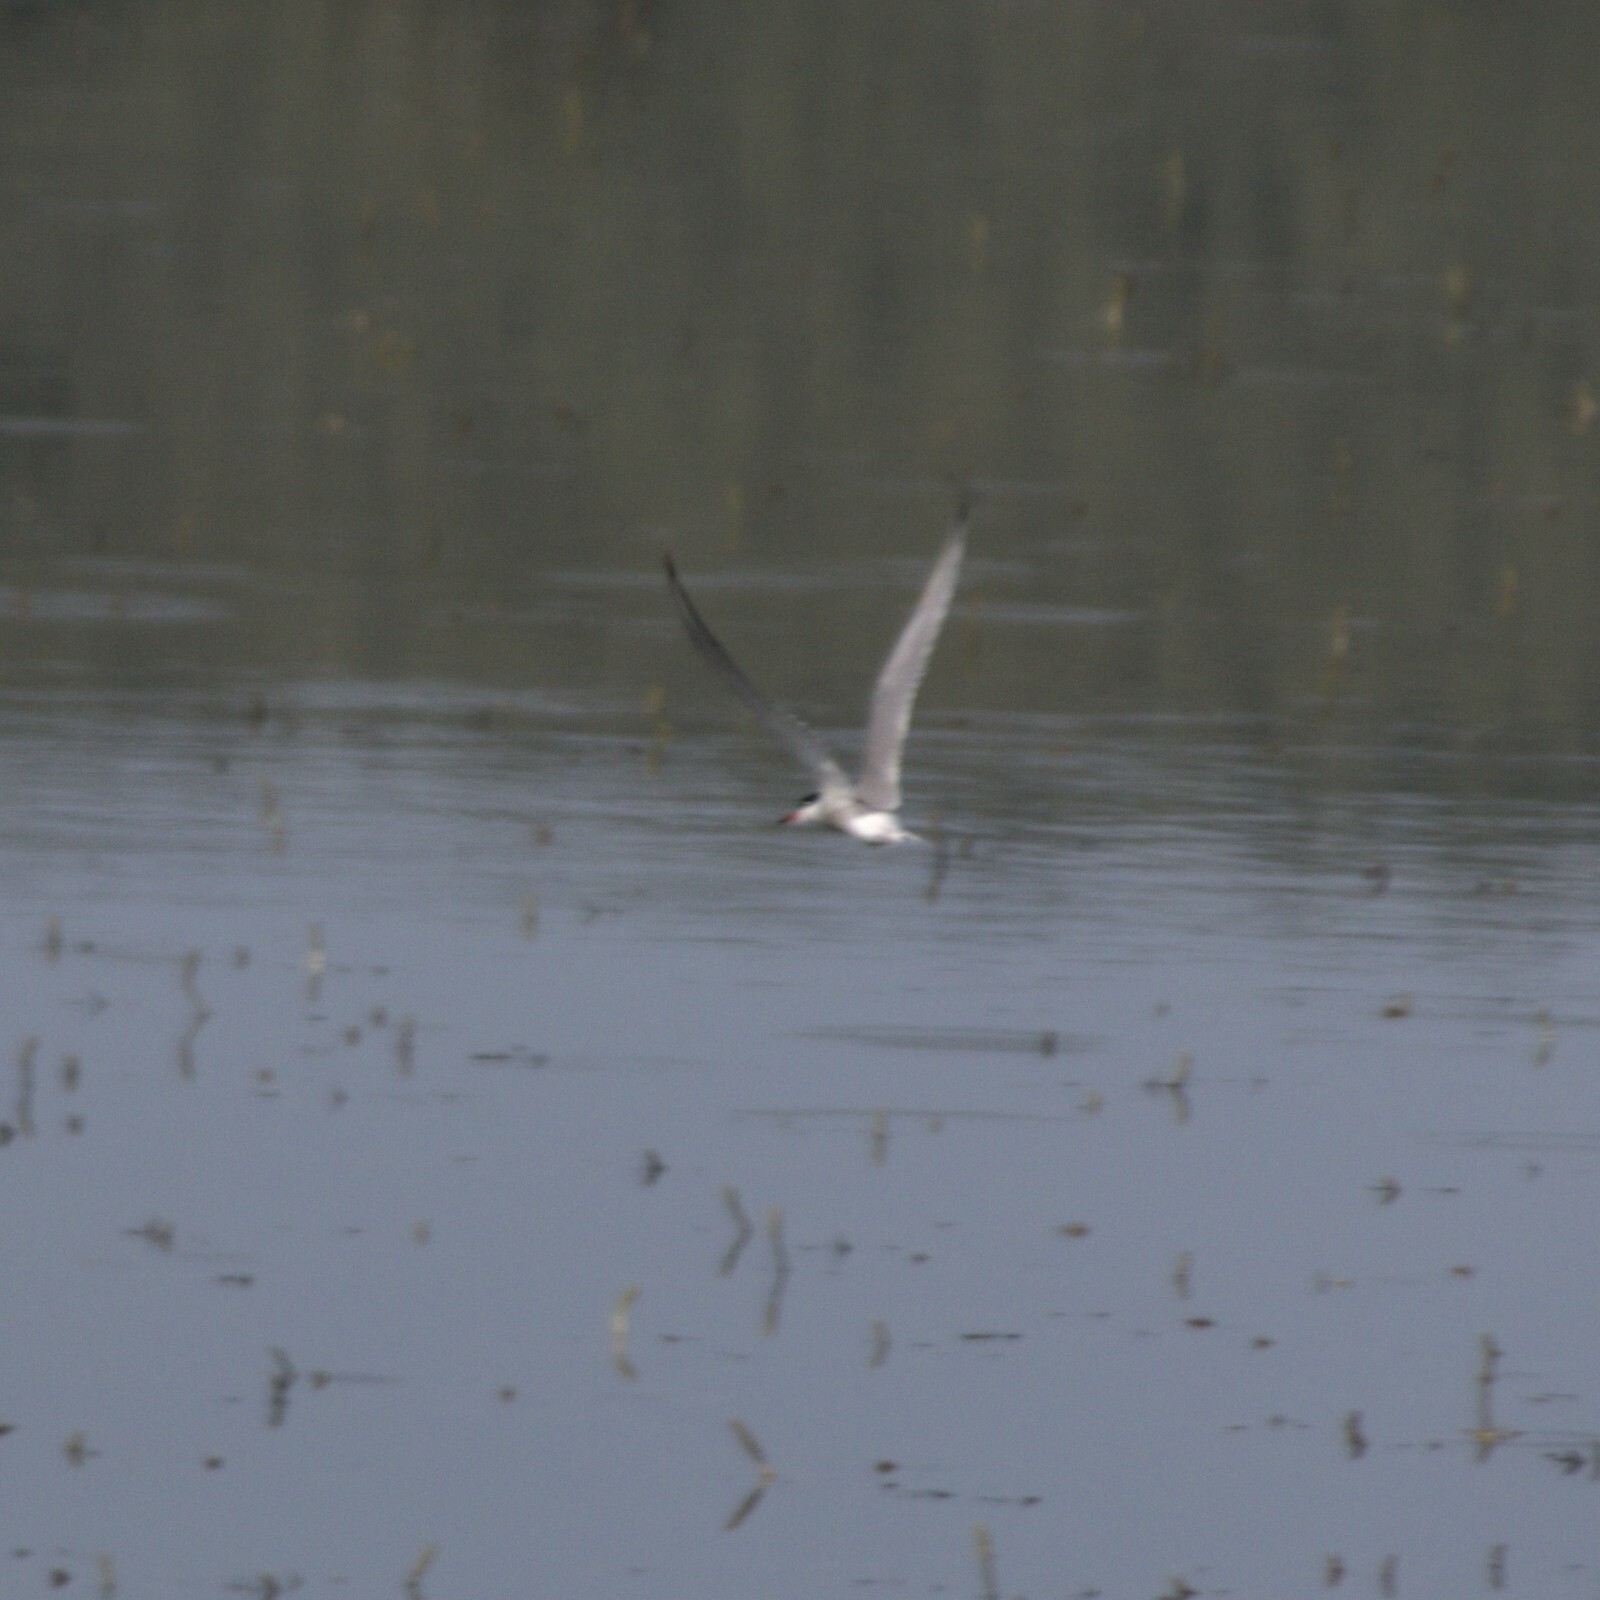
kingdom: Animalia
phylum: Chordata
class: Aves
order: Charadriiformes
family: Laridae
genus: Sterna
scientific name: Sterna hirundo
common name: Common tern
